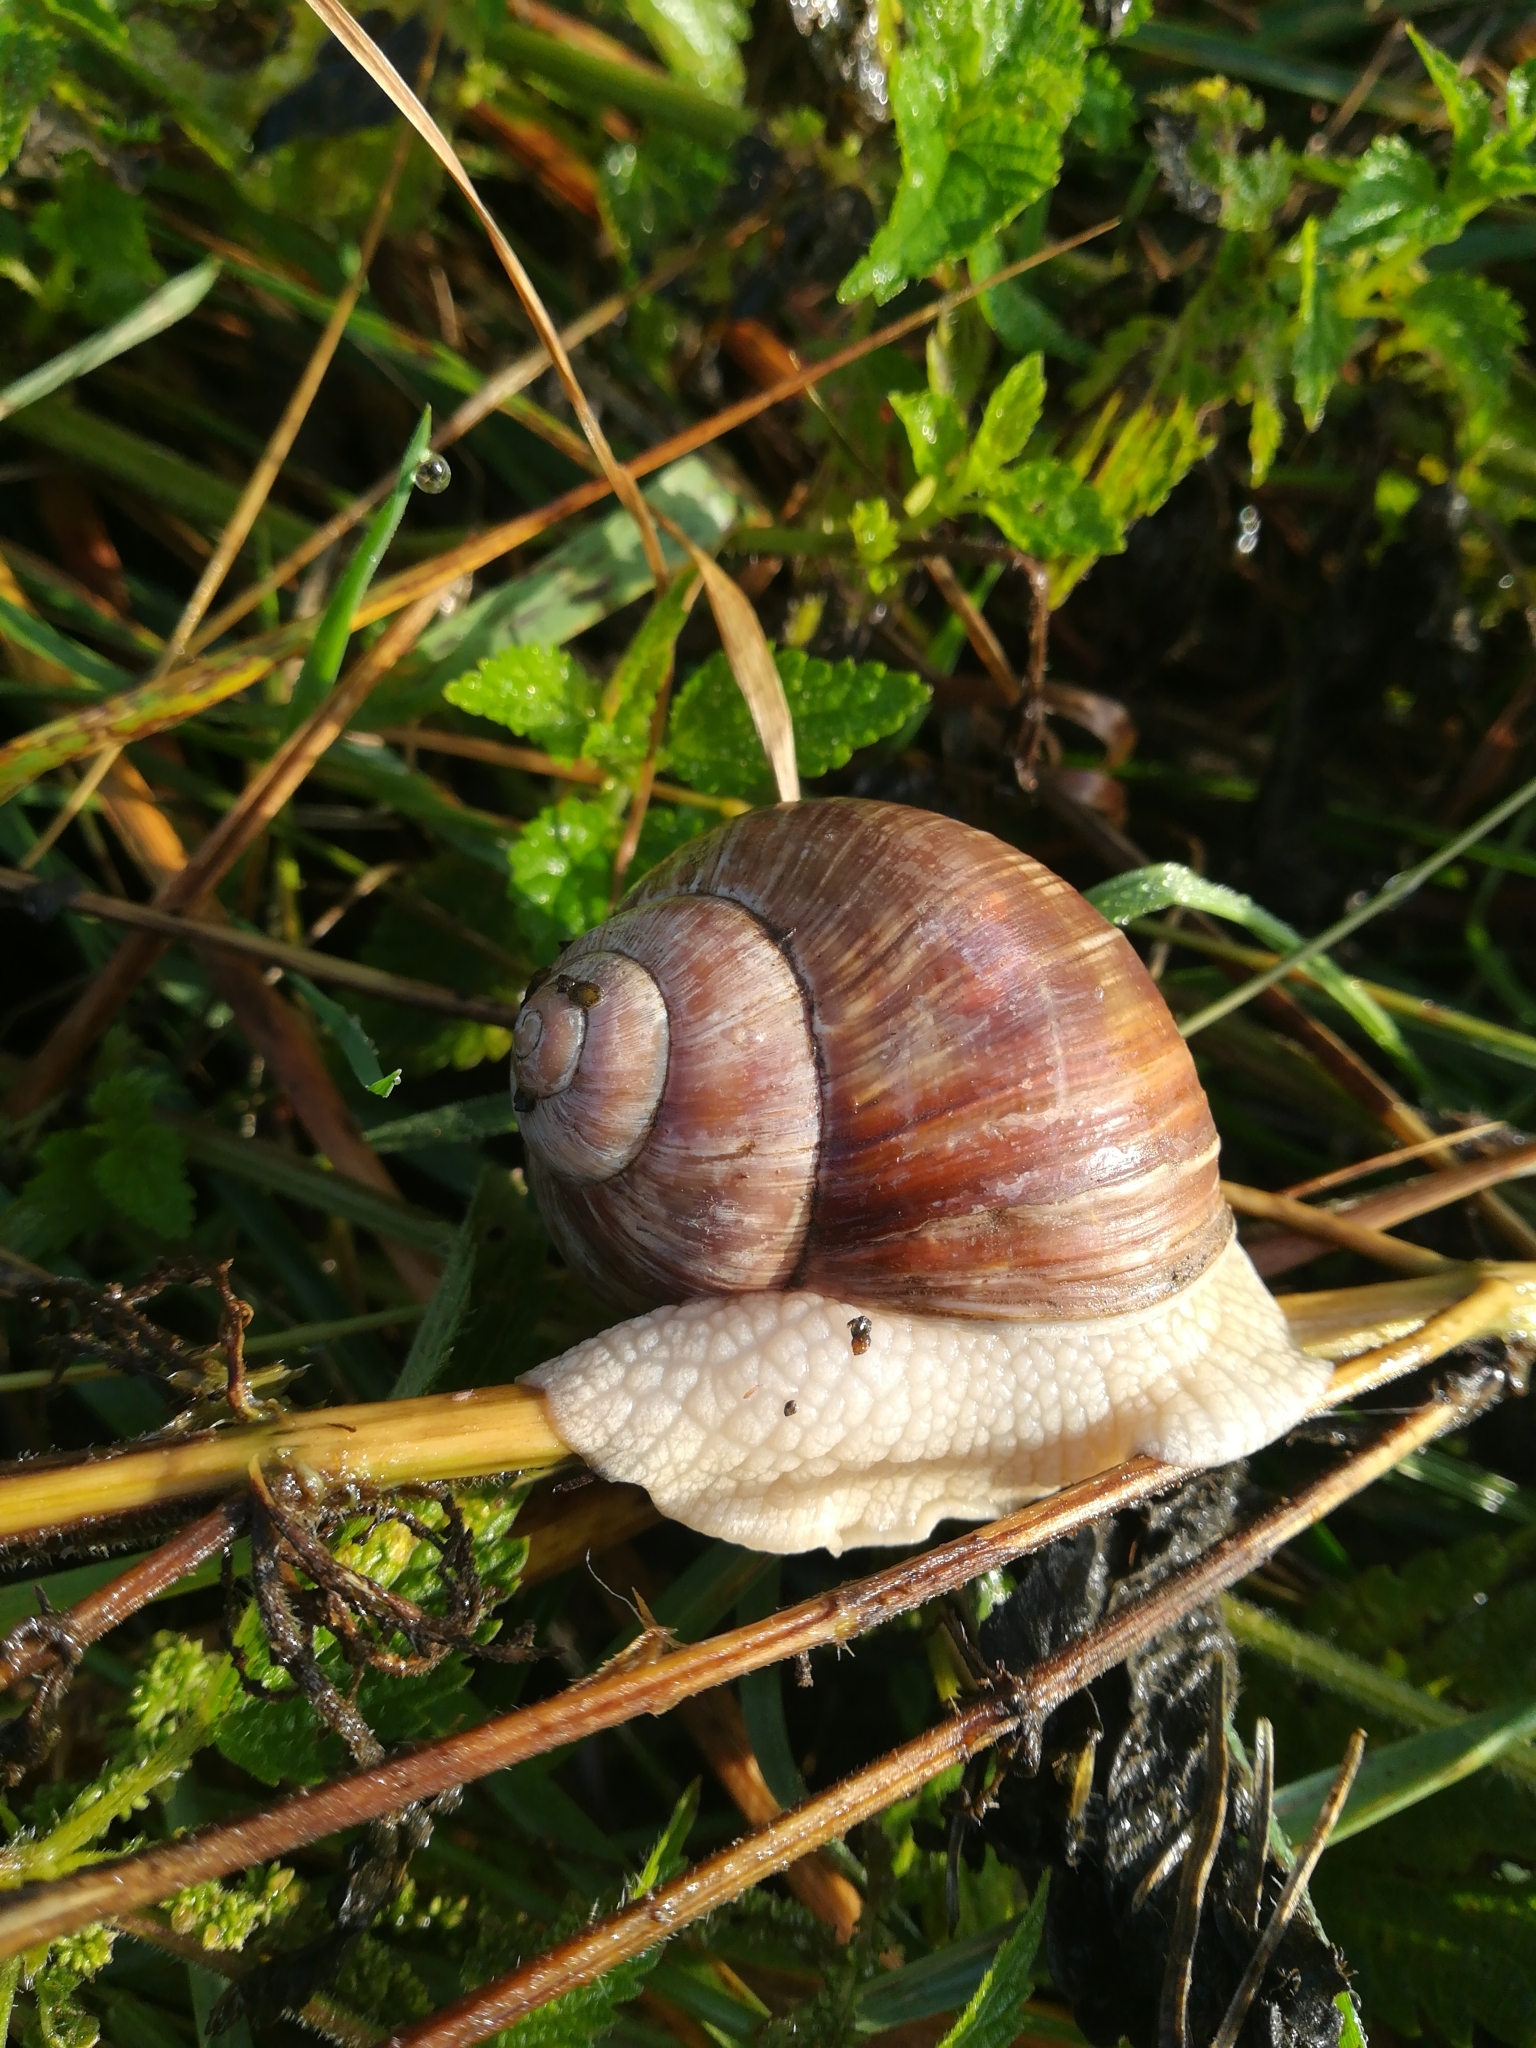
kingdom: Animalia
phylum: Mollusca
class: Gastropoda
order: Stylommatophora
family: Helicidae
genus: Helix
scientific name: Helix pomatia
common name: Roman snail
